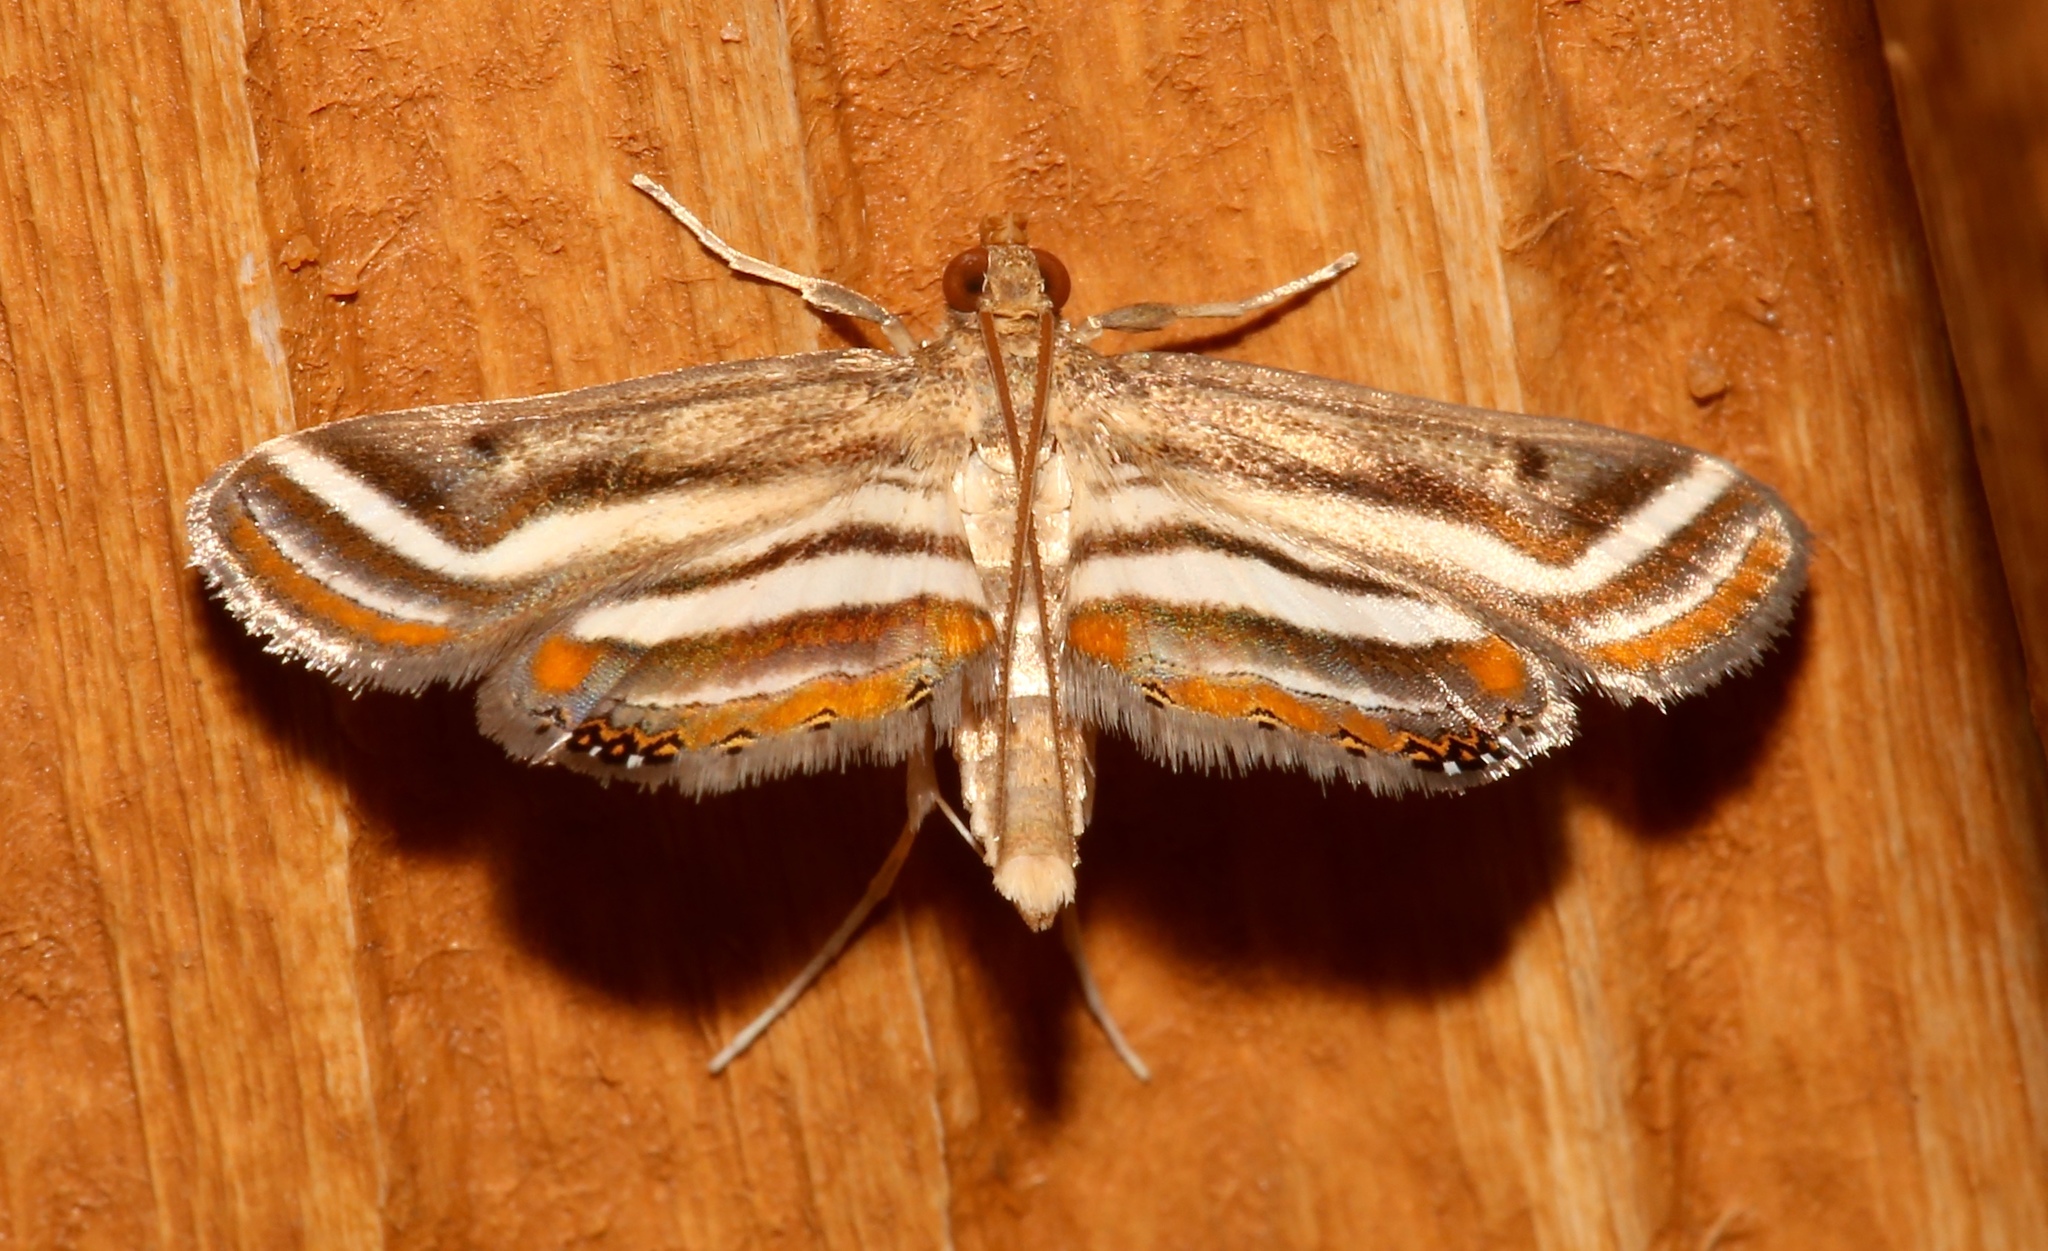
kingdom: Animalia
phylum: Arthropoda
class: Insecta
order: Lepidoptera
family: Crambidae
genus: Parapoynx
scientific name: Parapoynx seminealis
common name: Floating-heart waterlily leafcutter
